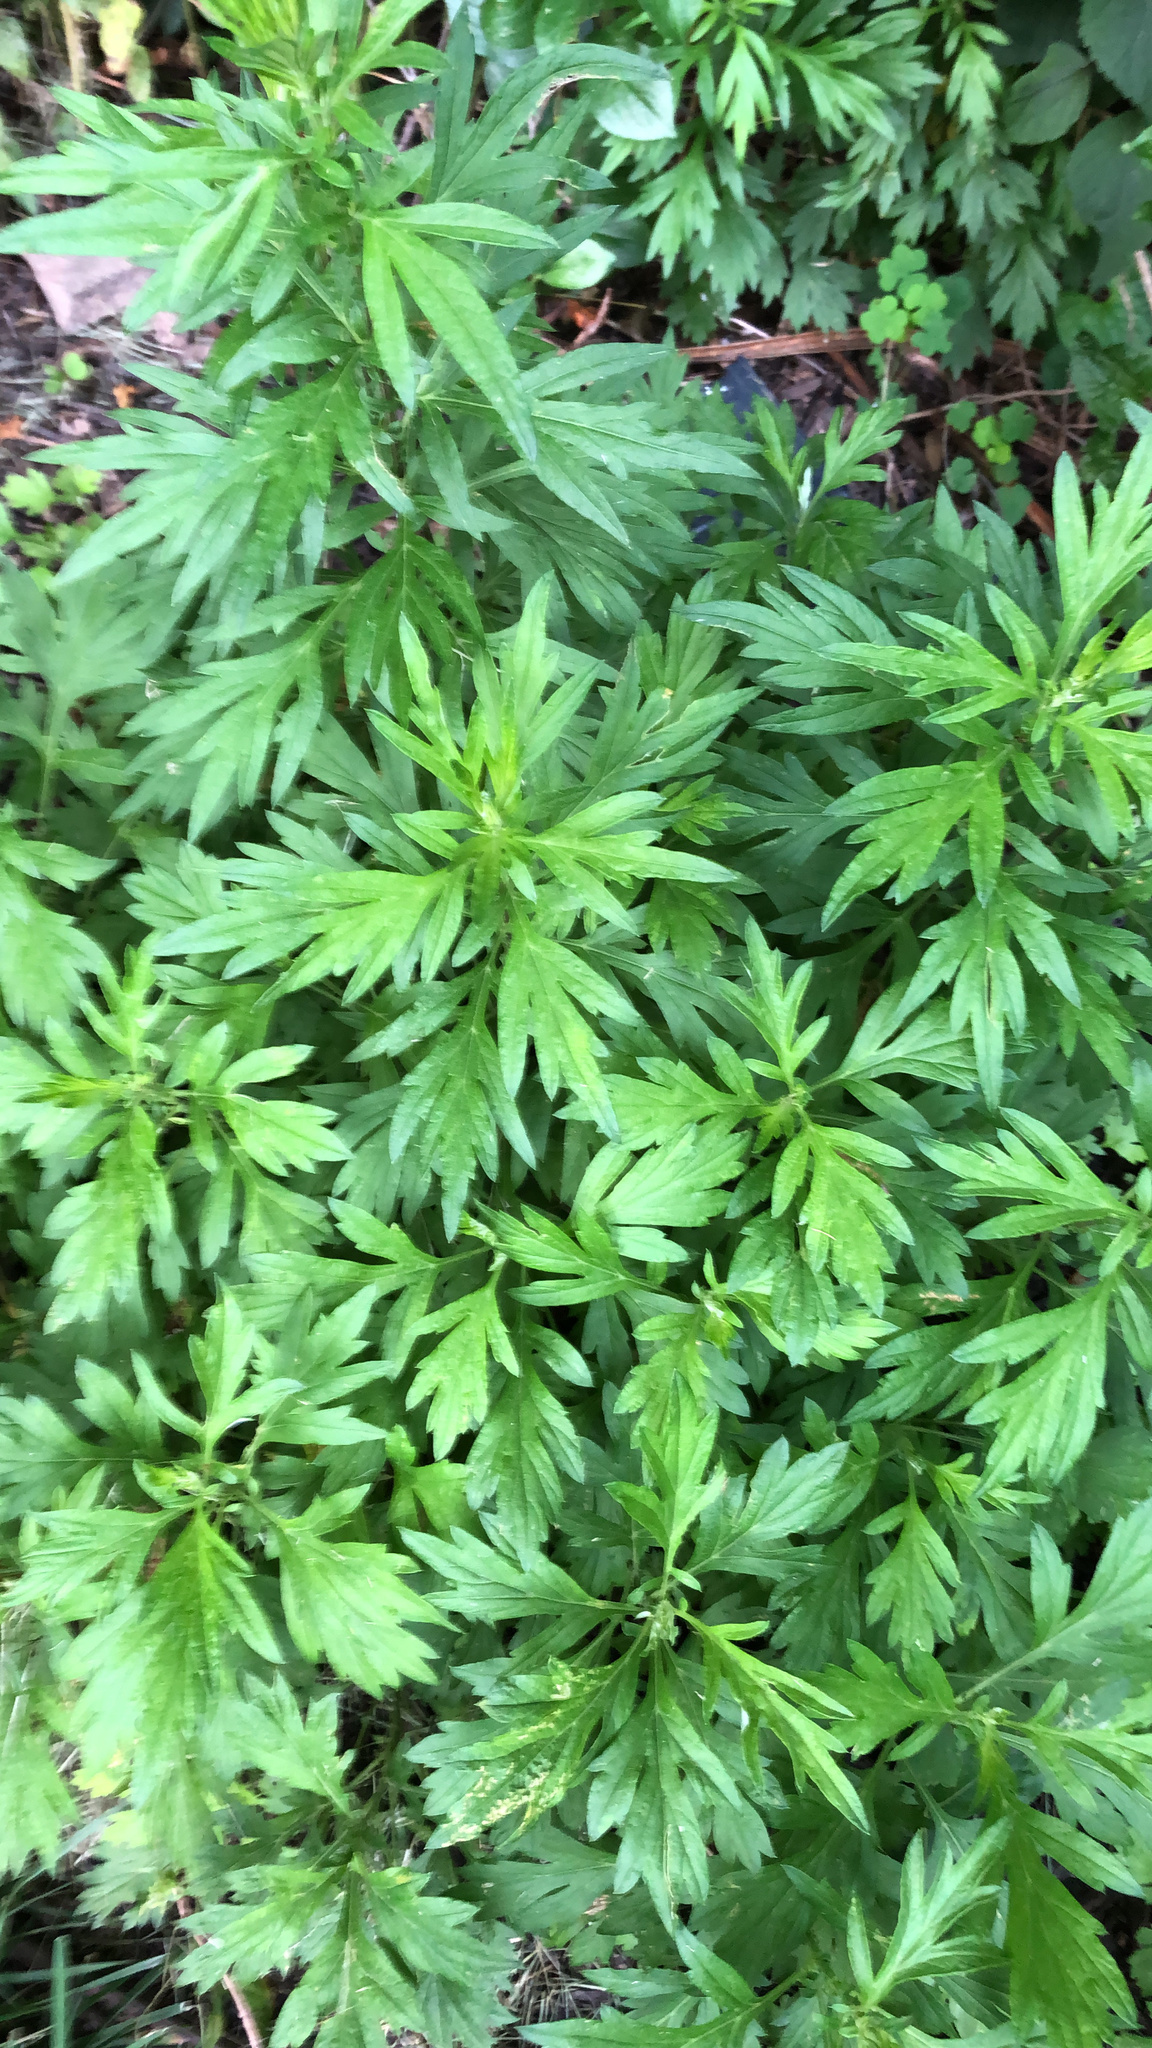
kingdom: Plantae
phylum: Tracheophyta
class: Magnoliopsida
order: Asterales
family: Asteraceae
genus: Artemisia
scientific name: Artemisia vulgaris
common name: Mugwort
